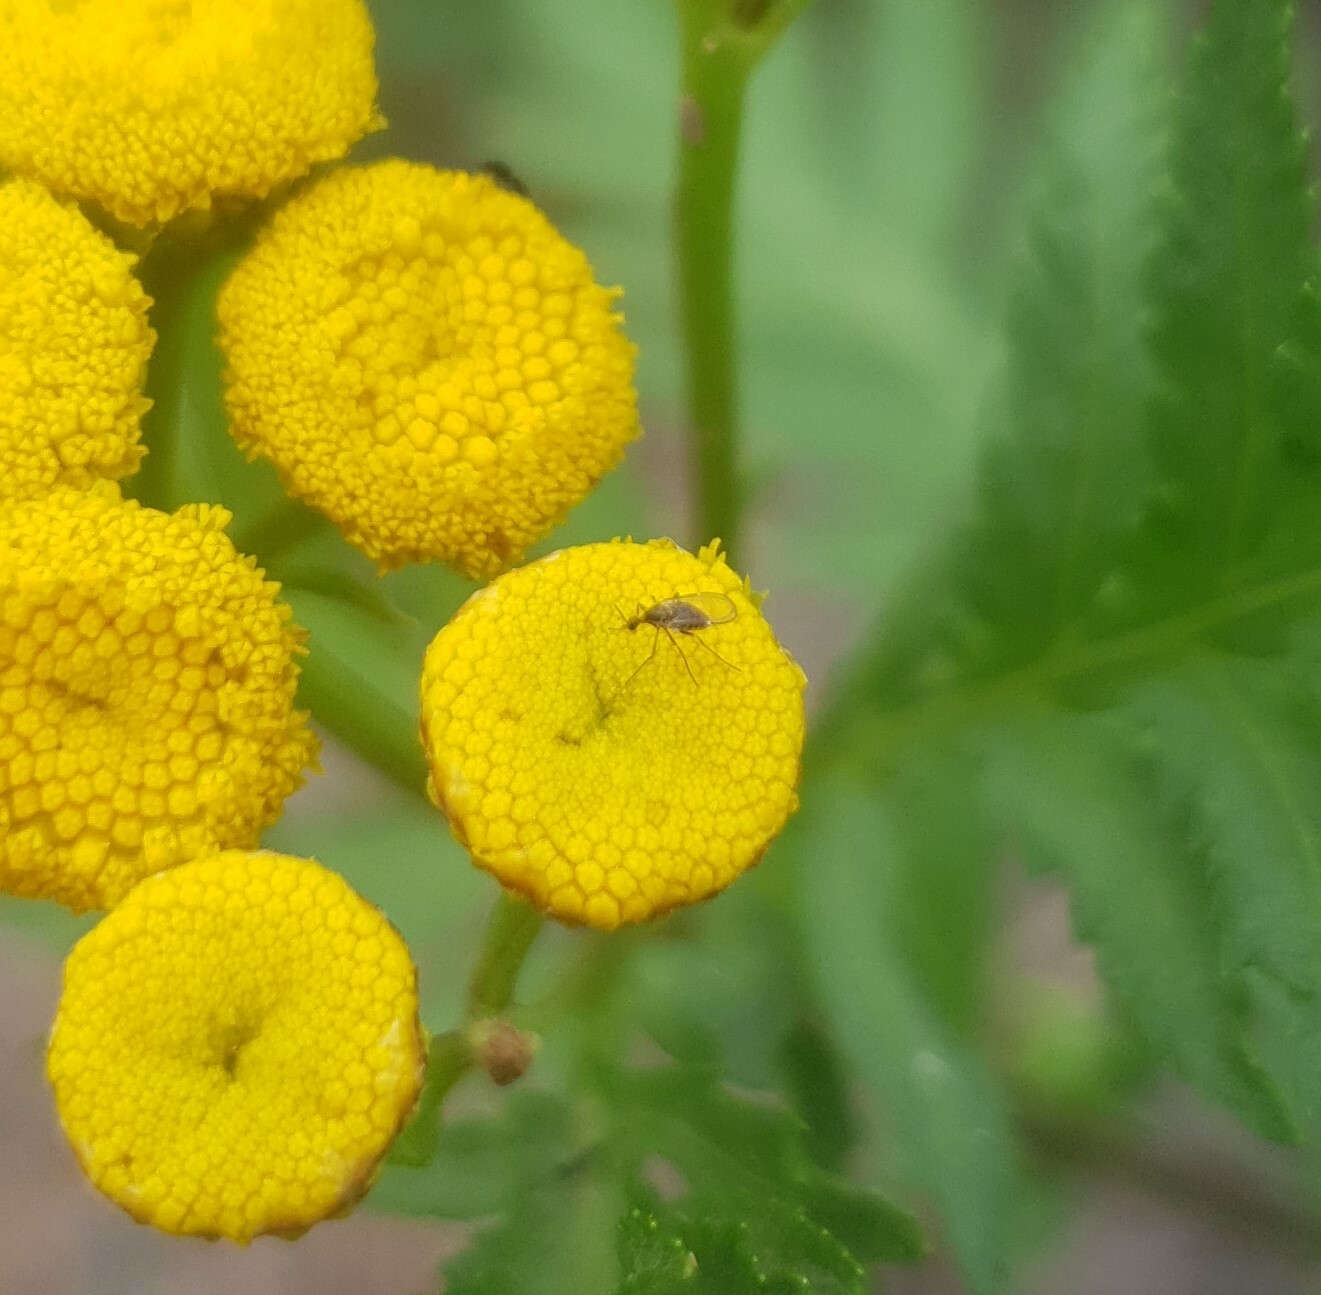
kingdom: Animalia
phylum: Arthropoda
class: Insecta
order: Diptera
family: Cecidomyiidae
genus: Ozirhincus
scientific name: Ozirhincus
